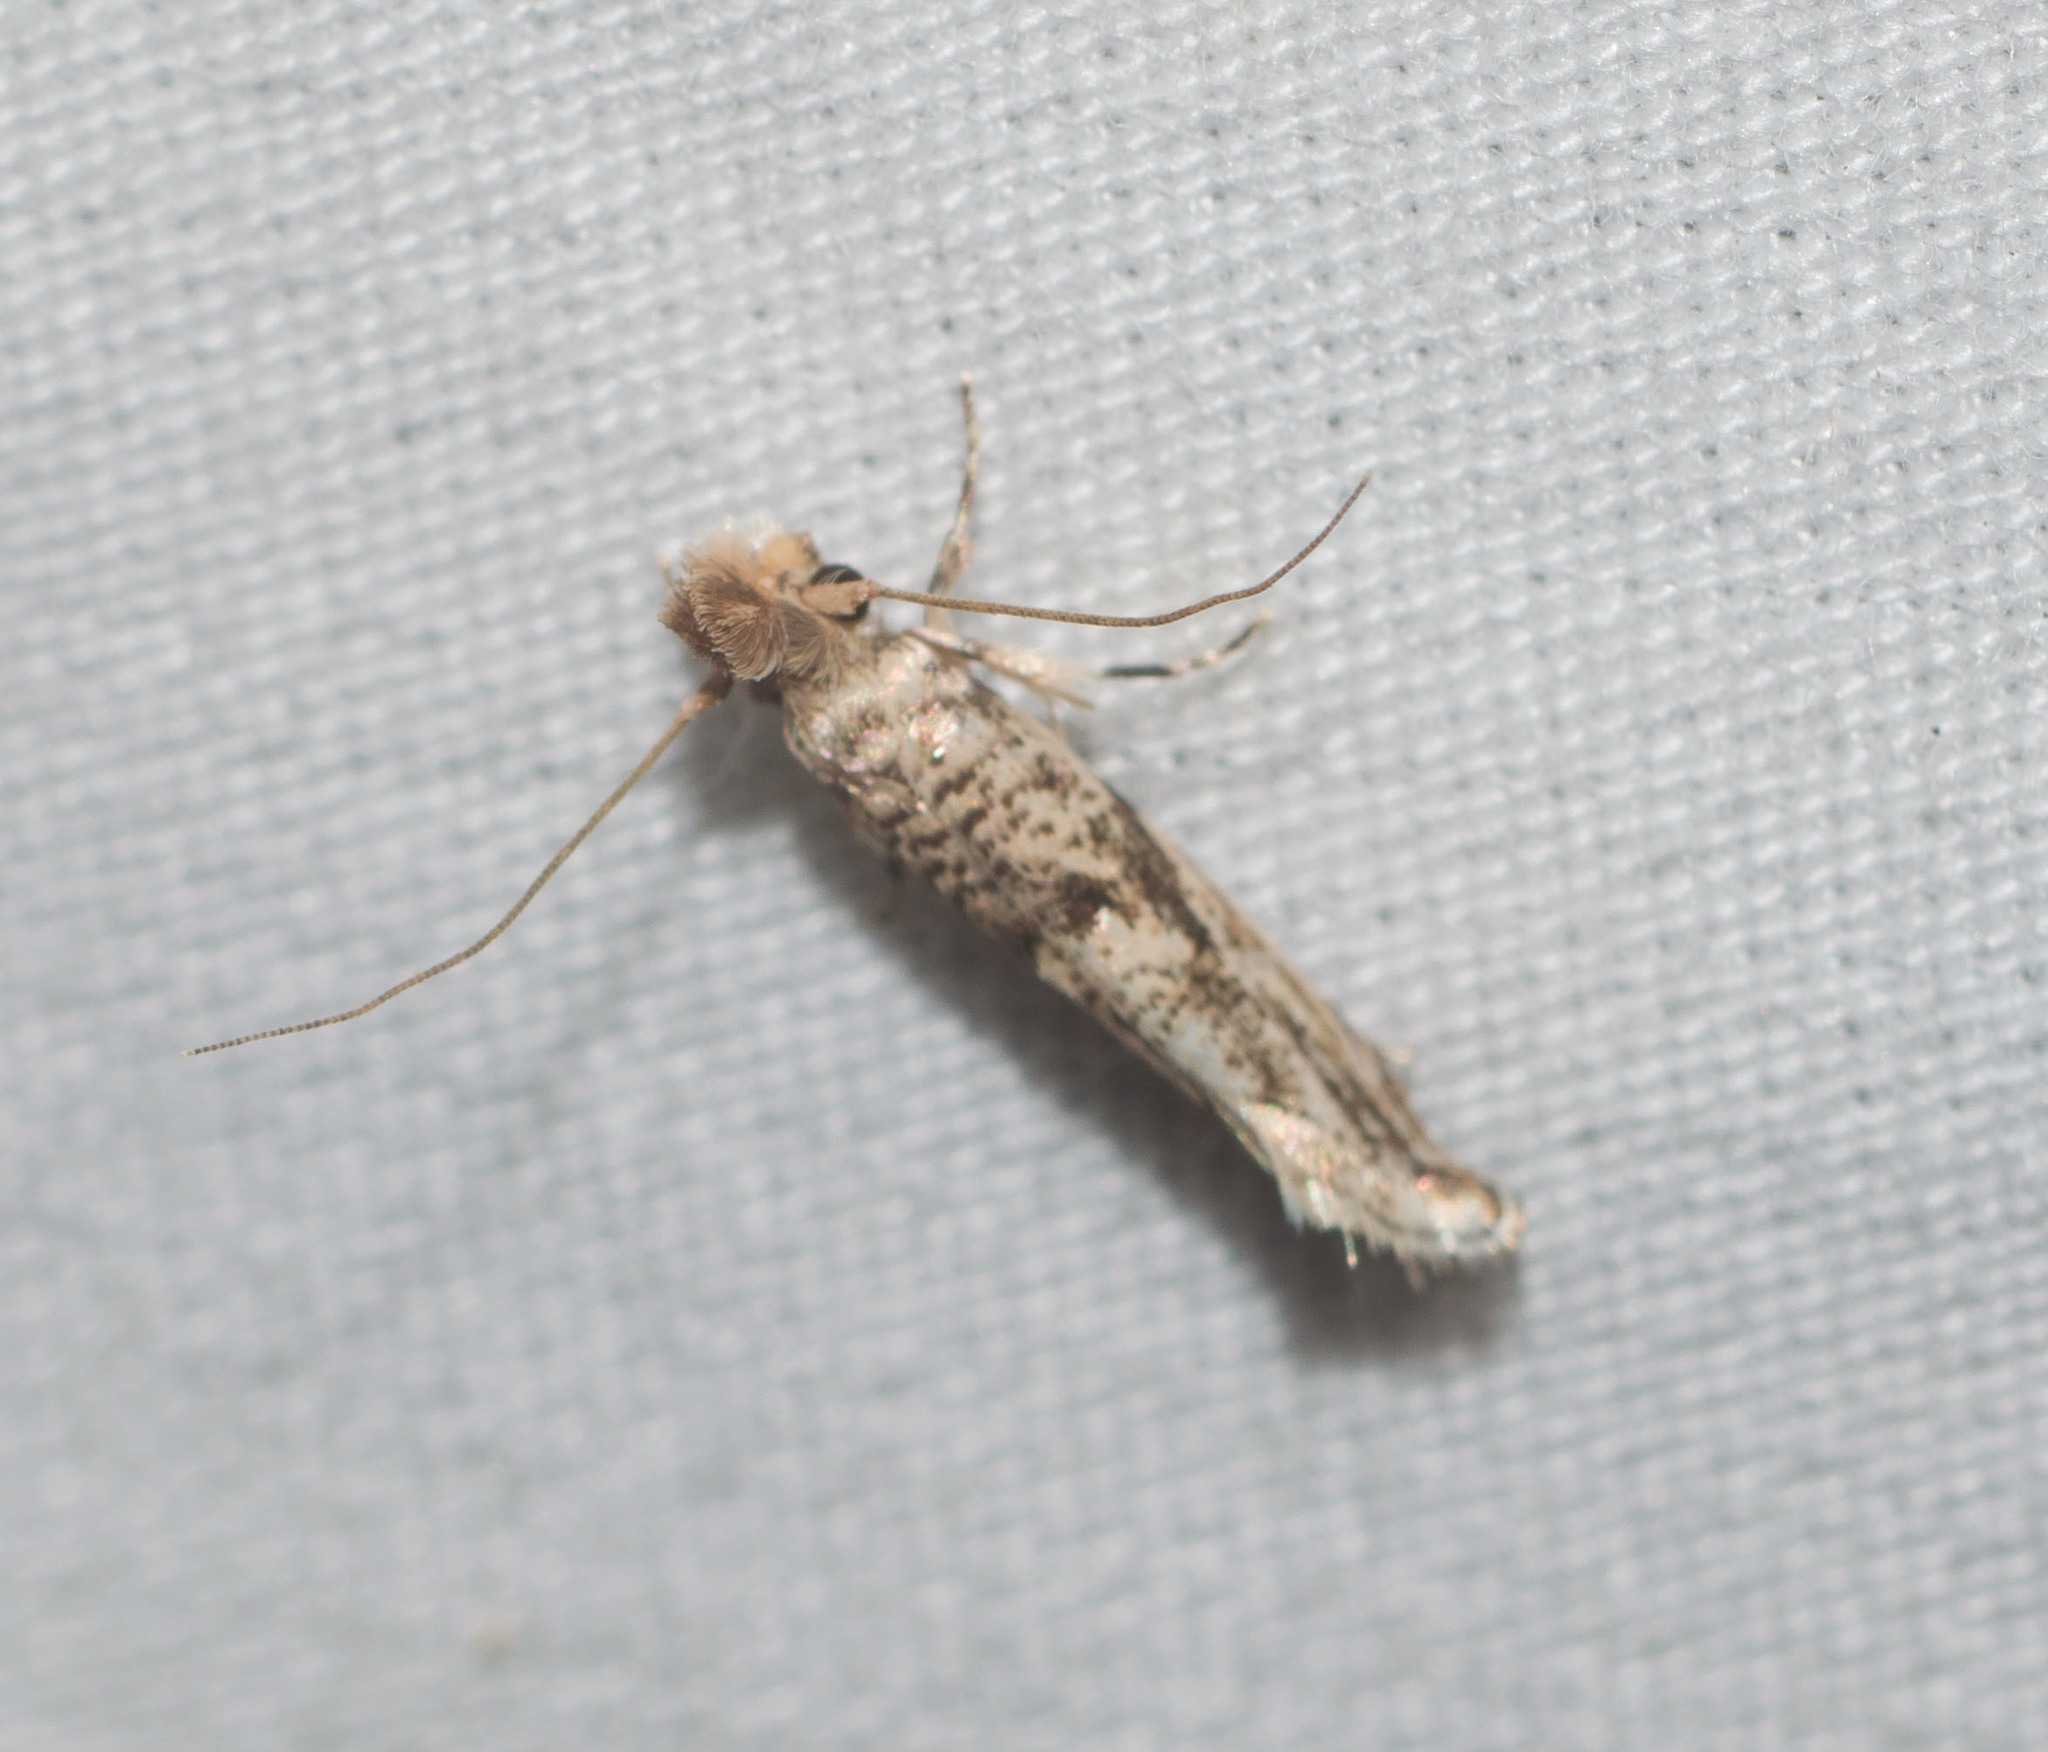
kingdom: Animalia
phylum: Arthropoda
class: Insecta
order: Lepidoptera
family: Tineidae
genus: Erechthias
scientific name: Erechthias pelotricha
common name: Fungus moth
